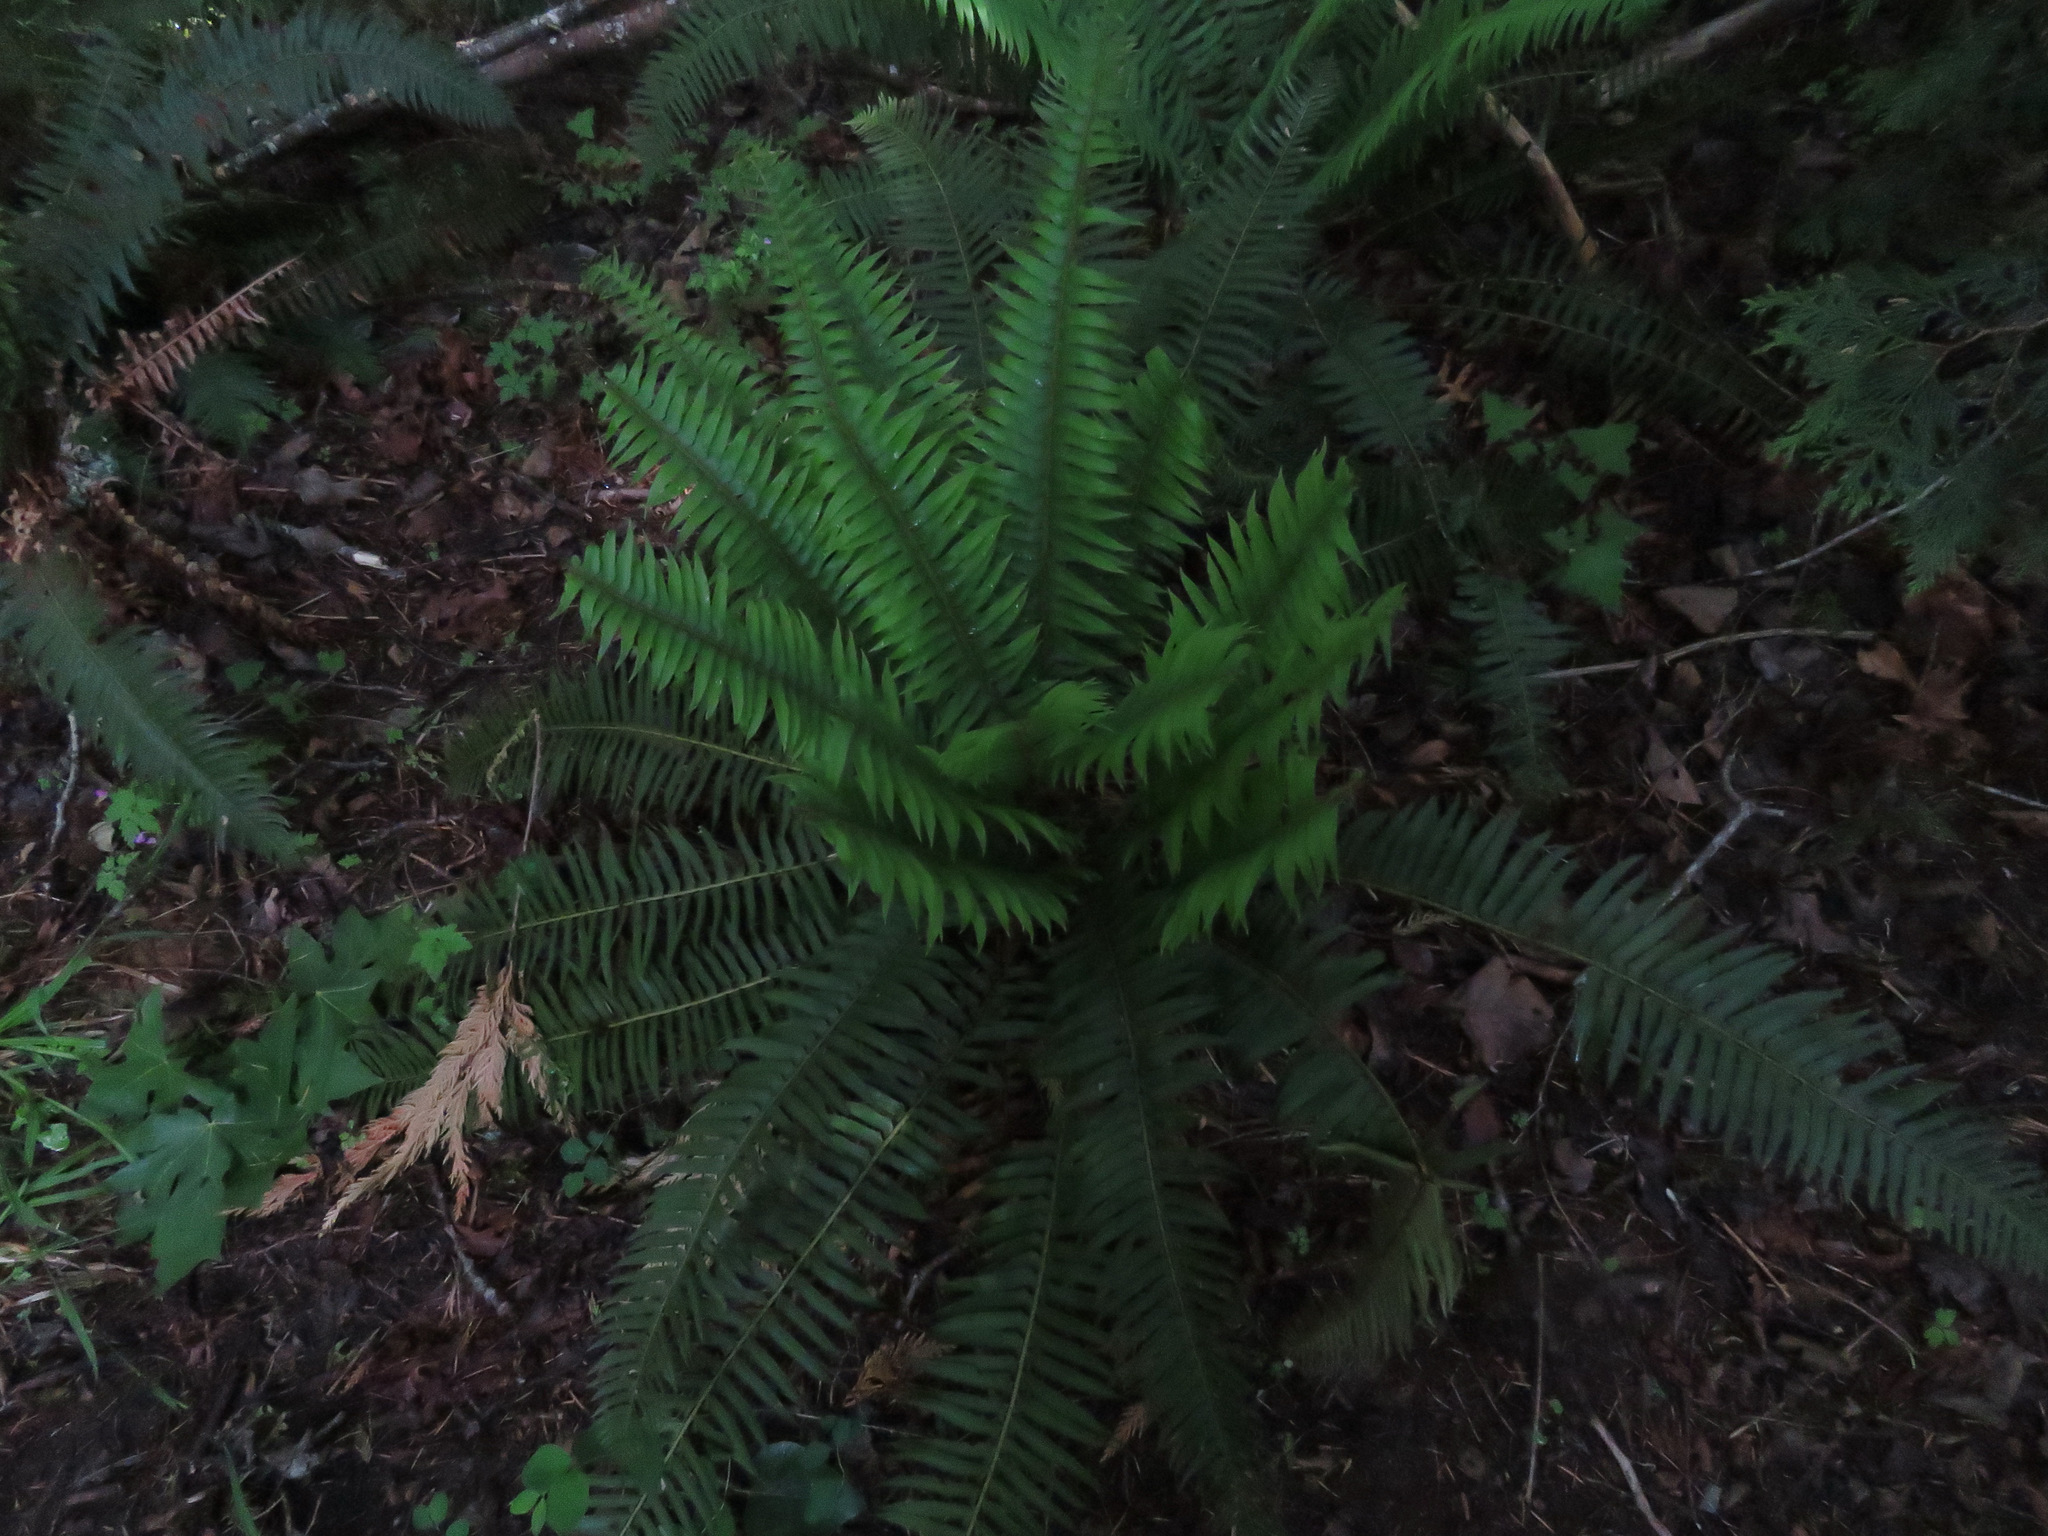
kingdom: Plantae
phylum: Tracheophyta
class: Polypodiopsida
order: Polypodiales
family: Dryopteridaceae
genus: Polystichum
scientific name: Polystichum munitum
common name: Western sword-fern
